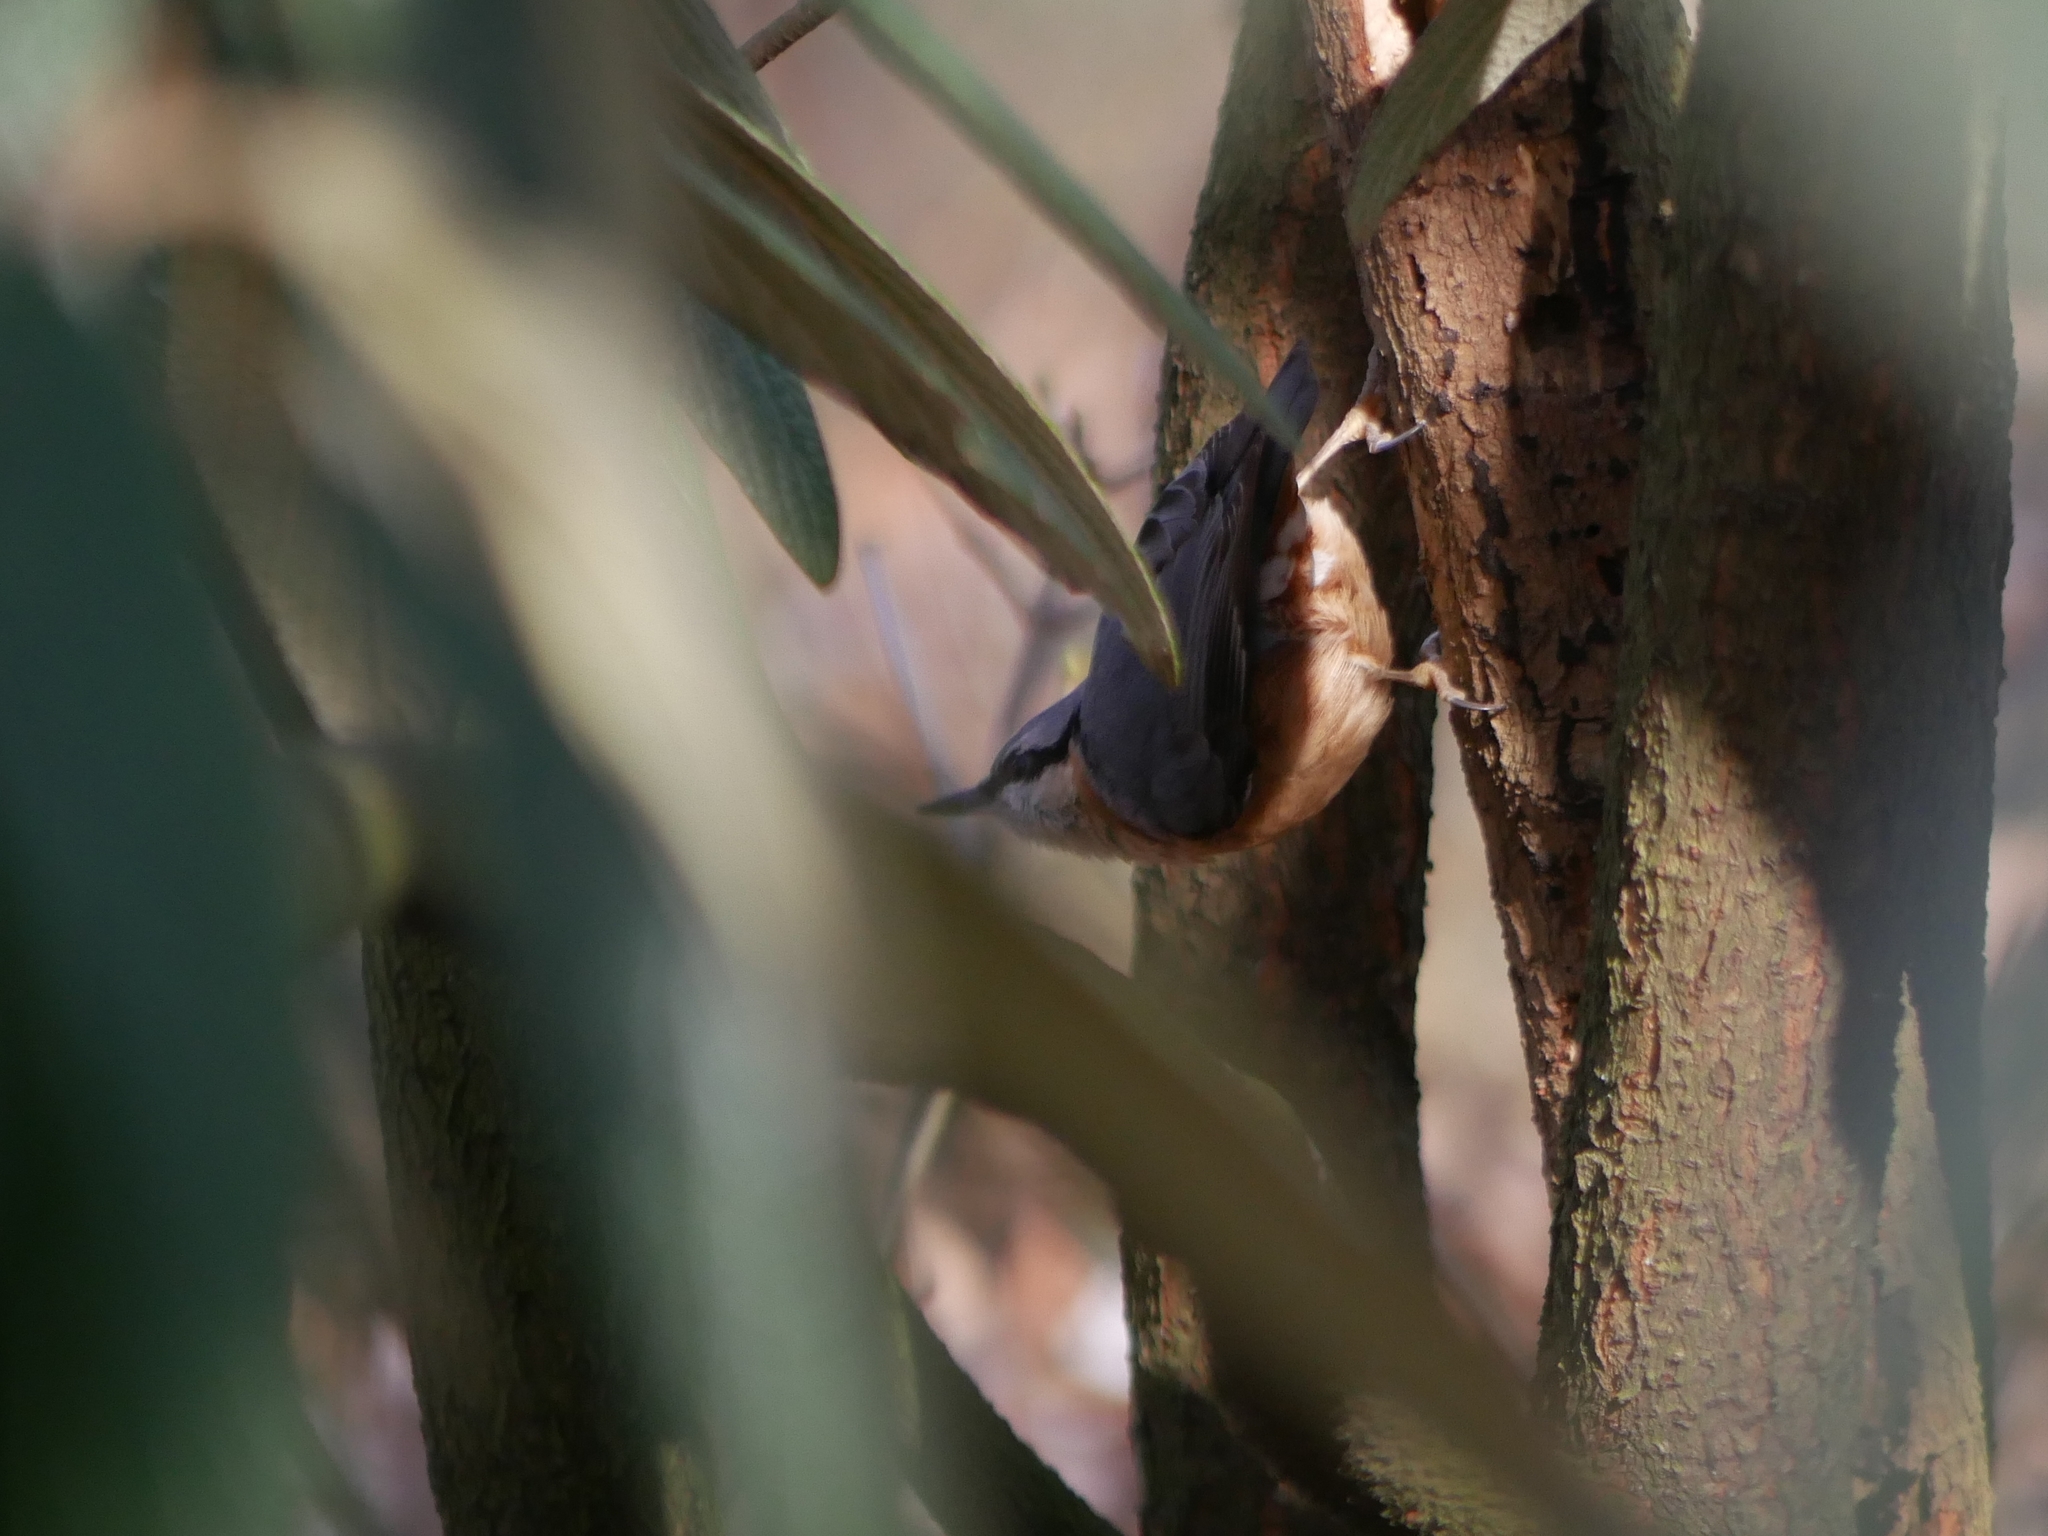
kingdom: Animalia
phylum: Chordata
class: Aves
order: Passeriformes
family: Sittidae
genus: Sitta
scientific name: Sitta europaea
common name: Eurasian nuthatch
